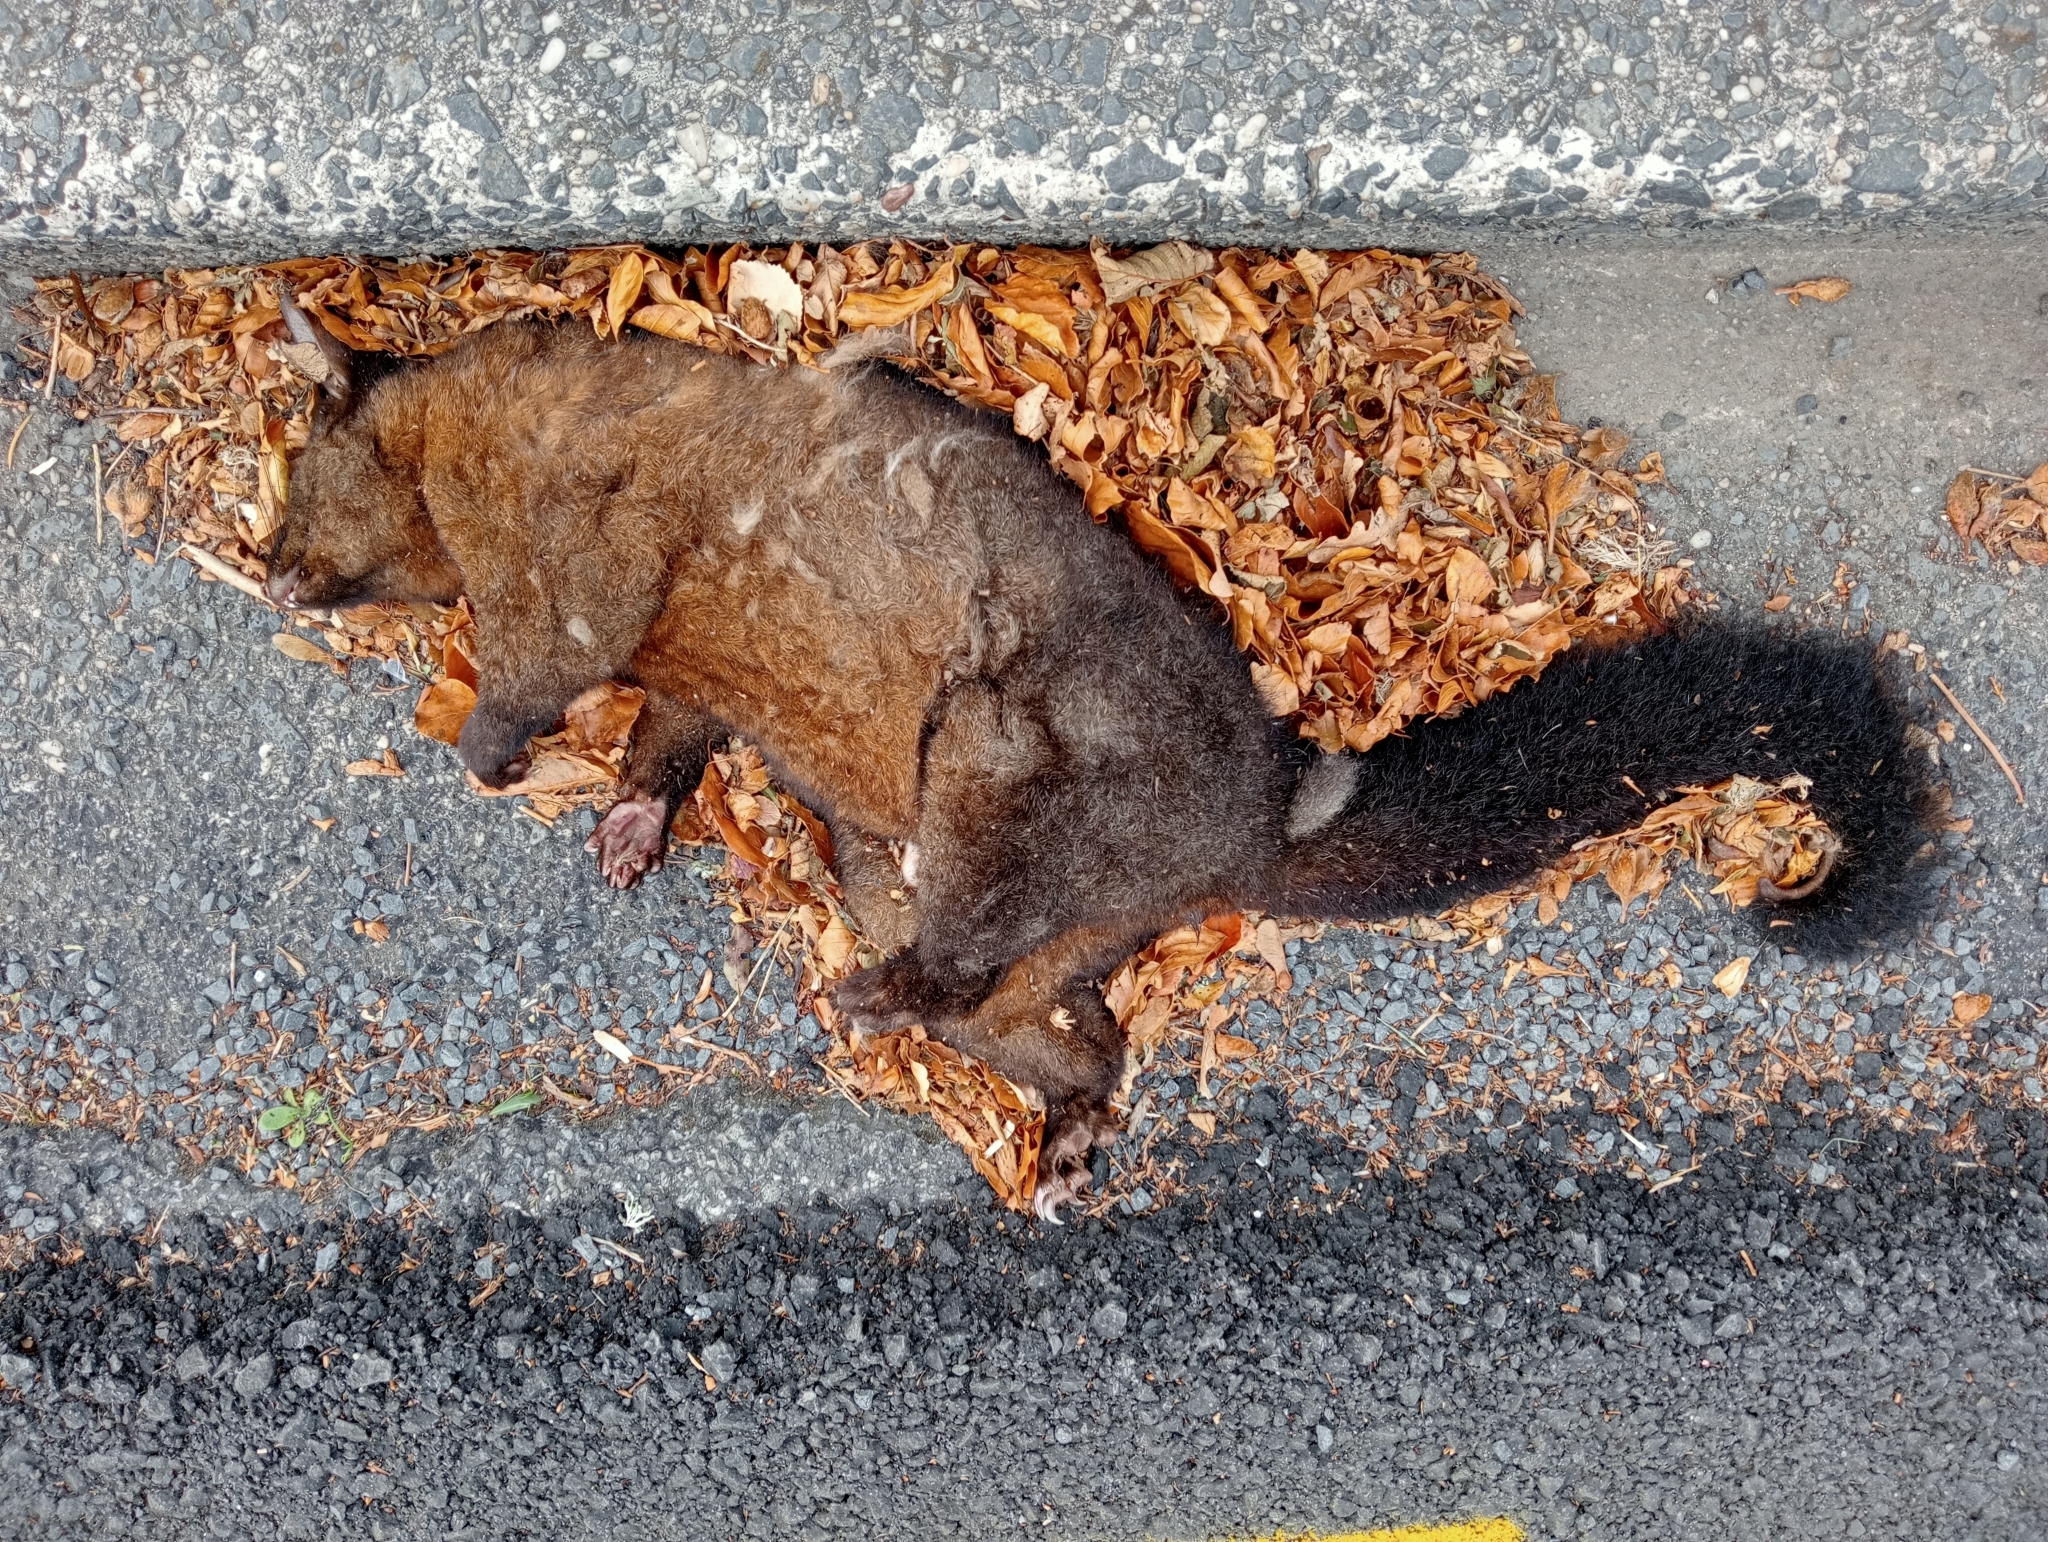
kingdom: Animalia
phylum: Chordata
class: Mammalia
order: Diprotodontia
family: Phalangeridae
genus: Trichosurus
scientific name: Trichosurus vulpecula
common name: Common brushtail
